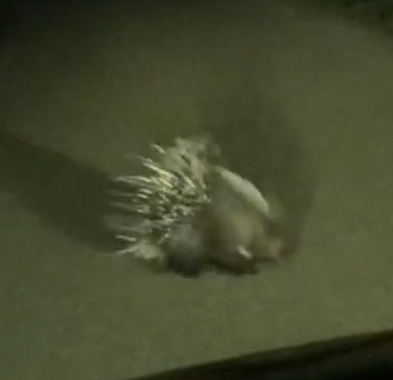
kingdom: Animalia
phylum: Chordata
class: Mammalia
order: Rodentia
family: Hystricidae
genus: Hystrix
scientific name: Hystrix cristata
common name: Crested porcupine
